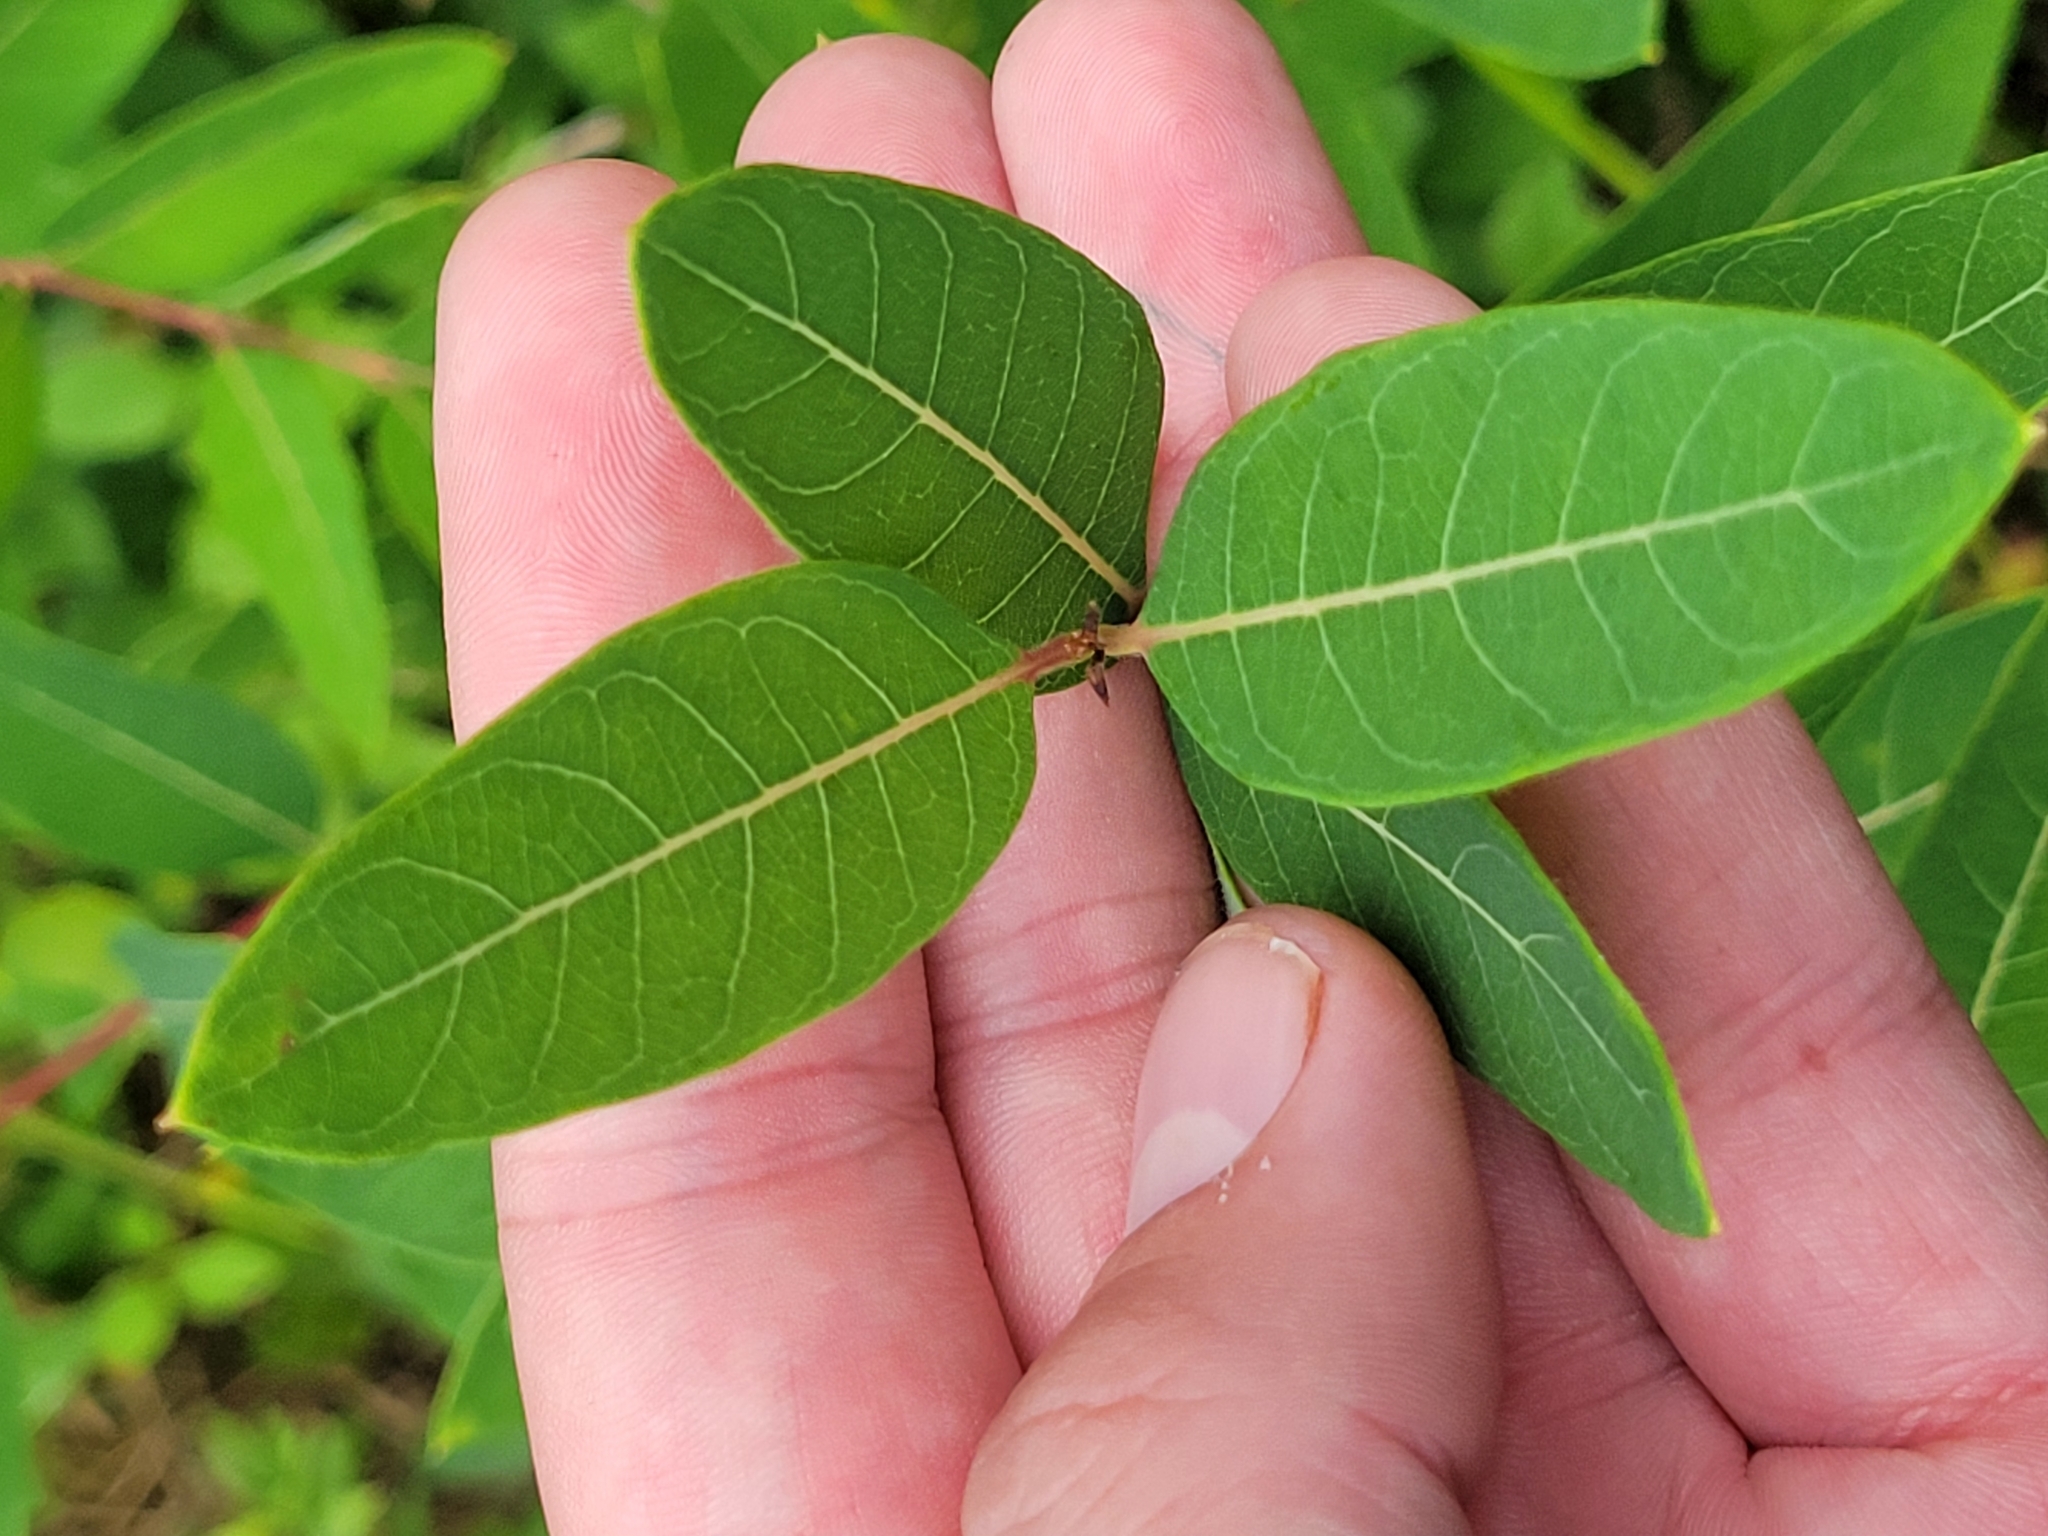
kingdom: Plantae
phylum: Tracheophyta
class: Magnoliopsida
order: Gentianales
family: Apocynaceae
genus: Apocynum
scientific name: Apocynum cannabinum
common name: Hemp dogbane
